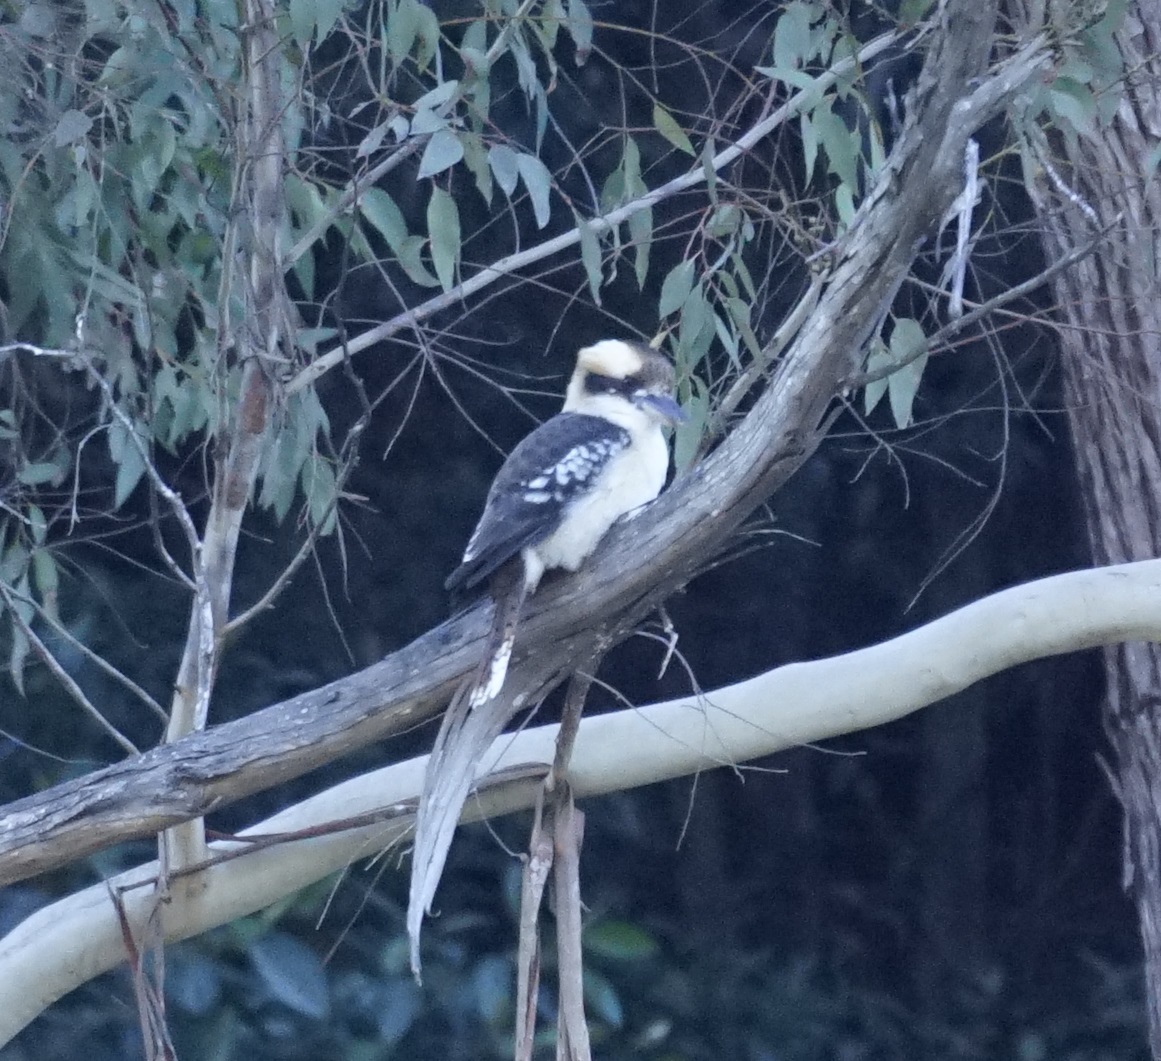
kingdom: Animalia
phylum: Chordata
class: Aves
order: Coraciiformes
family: Alcedinidae
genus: Dacelo
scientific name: Dacelo novaeguineae
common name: Laughing kookaburra
